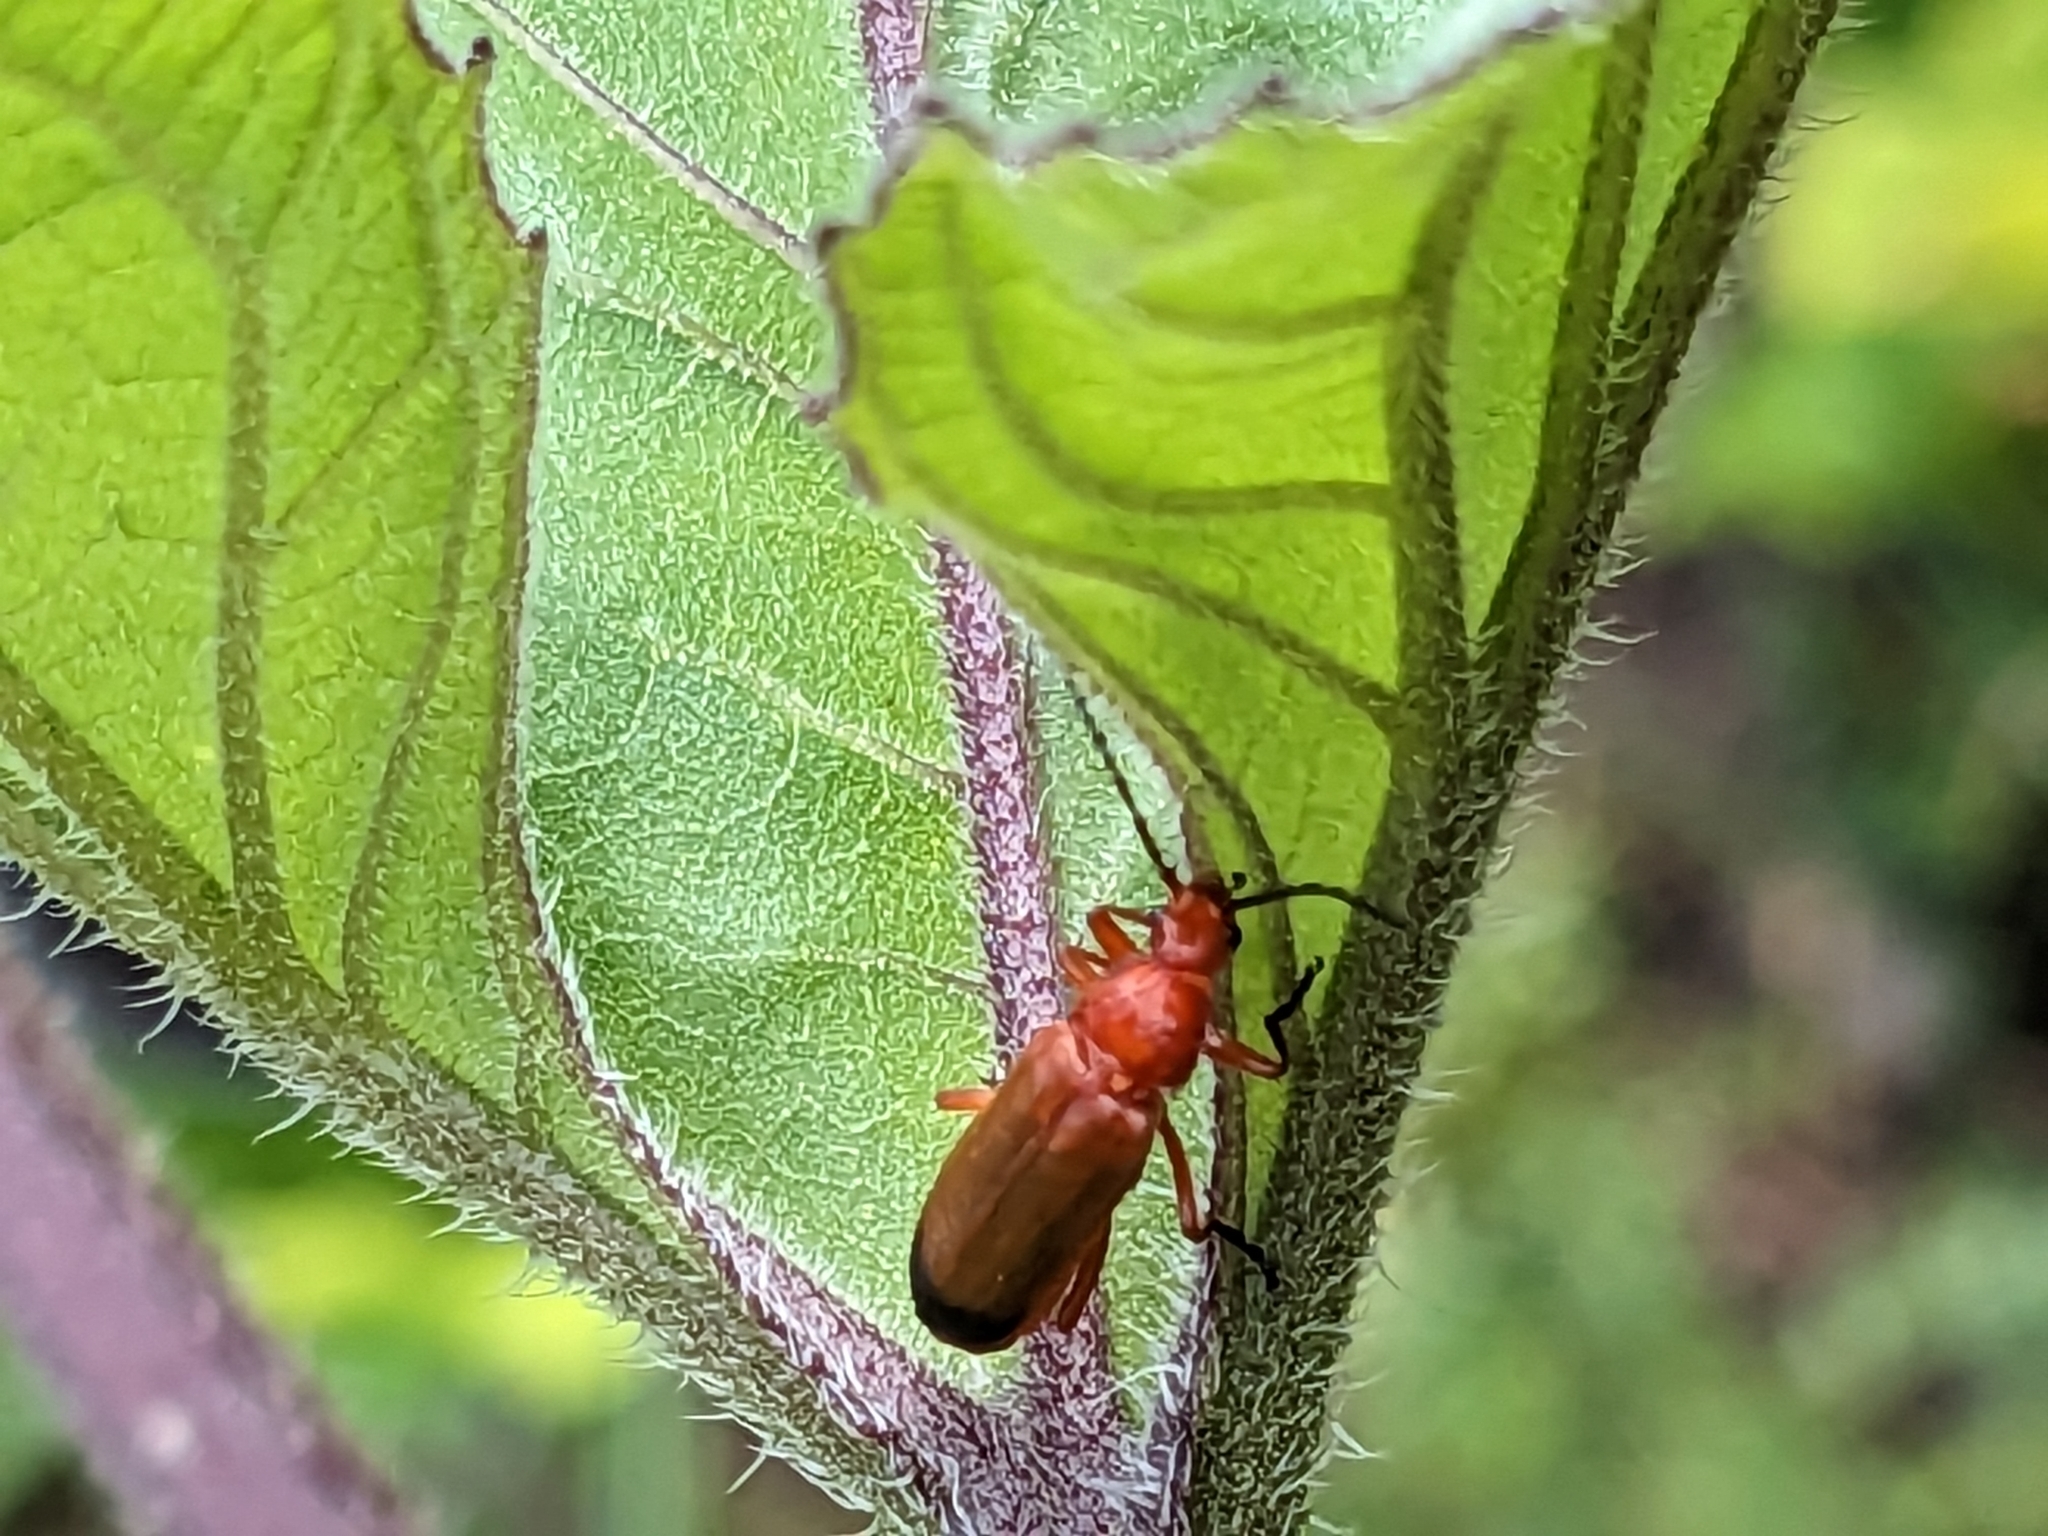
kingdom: Animalia
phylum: Arthropoda
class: Insecta
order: Coleoptera
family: Cantharidae
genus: Rhagonycha
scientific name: Rhagonycha fulva
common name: Common red soldier beetle
